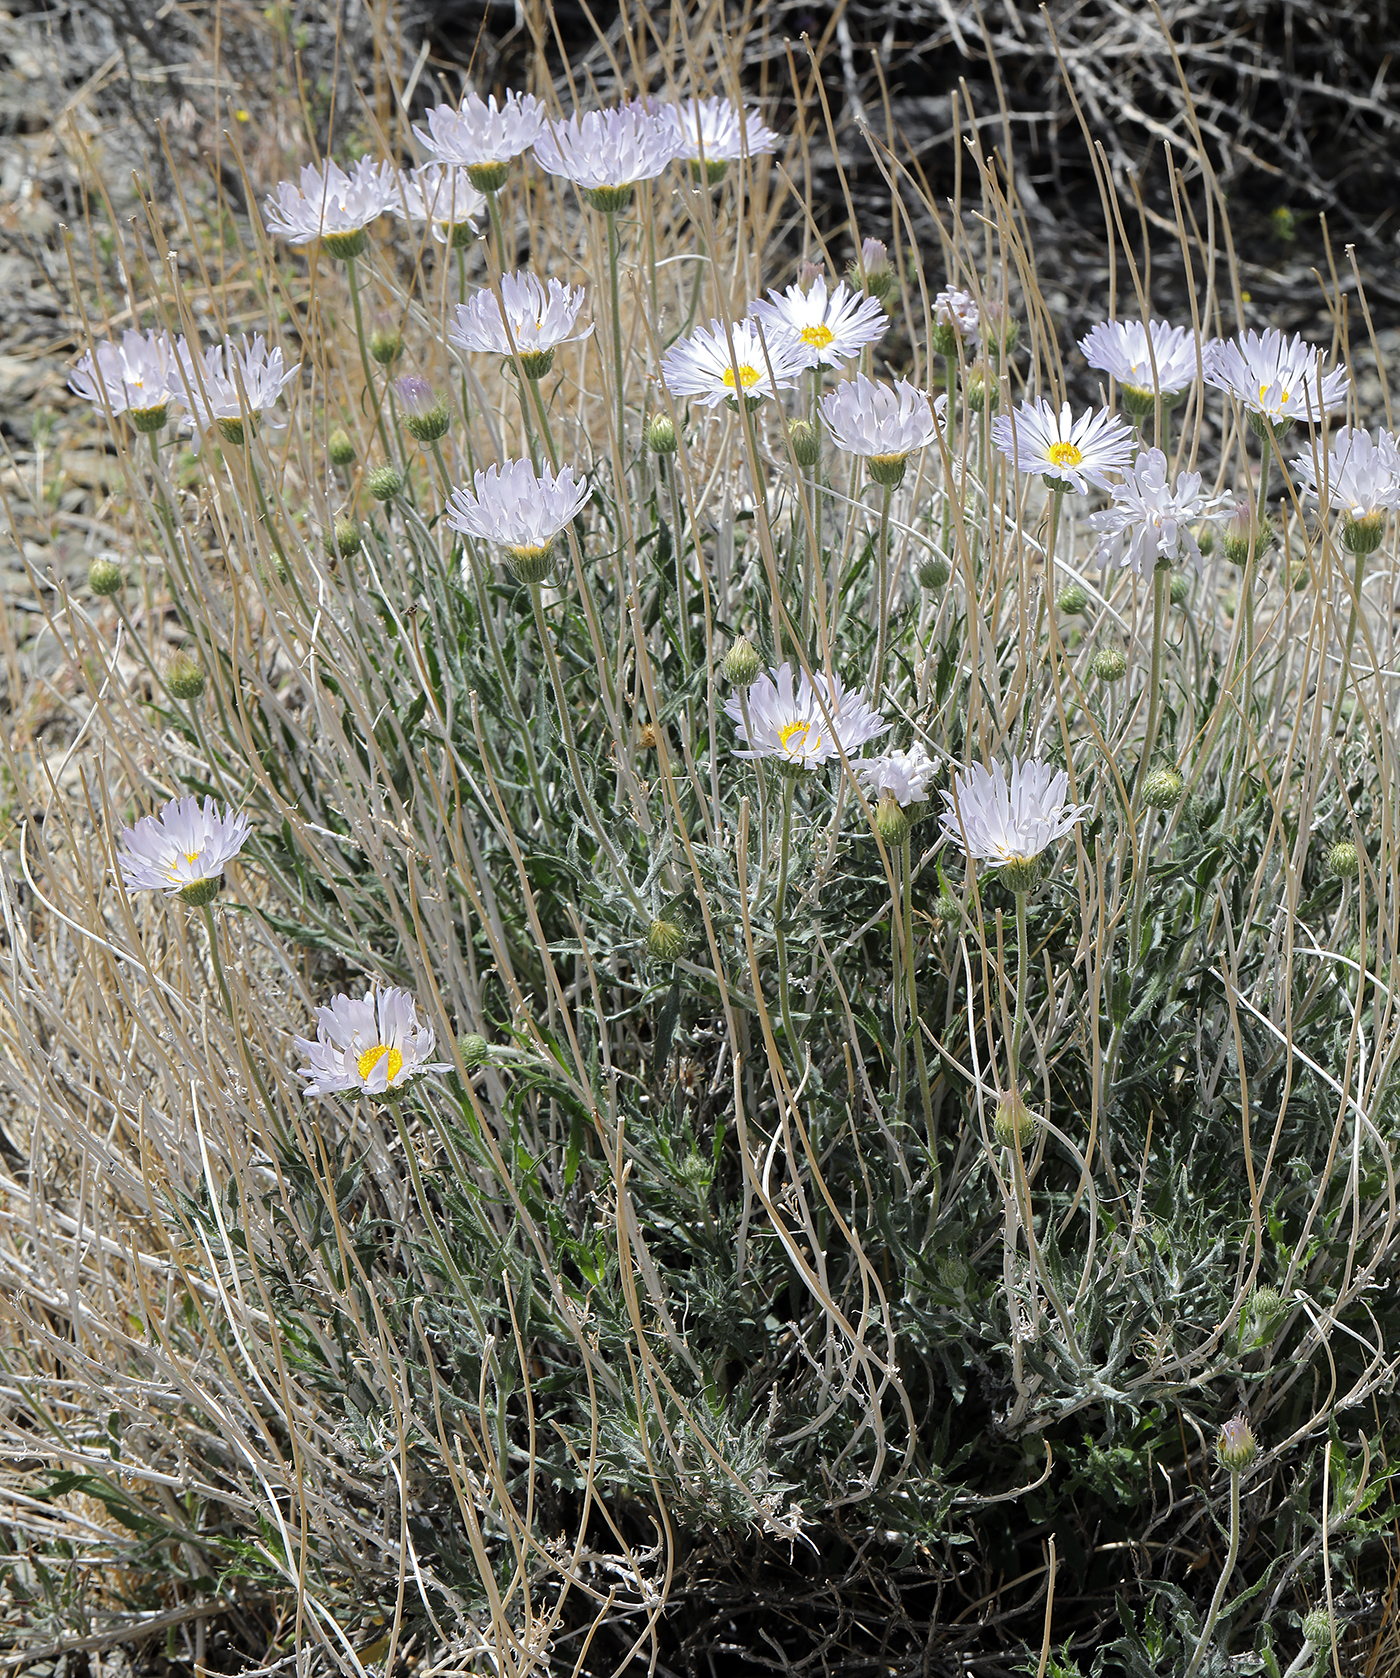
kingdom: Plantae
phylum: Tracheophyta
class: Magnoliopsida
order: Asterales
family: Asteraceae
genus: Xylorhiza
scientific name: Xylorhiza tortifolia
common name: Hurt-leaf woody-aster
